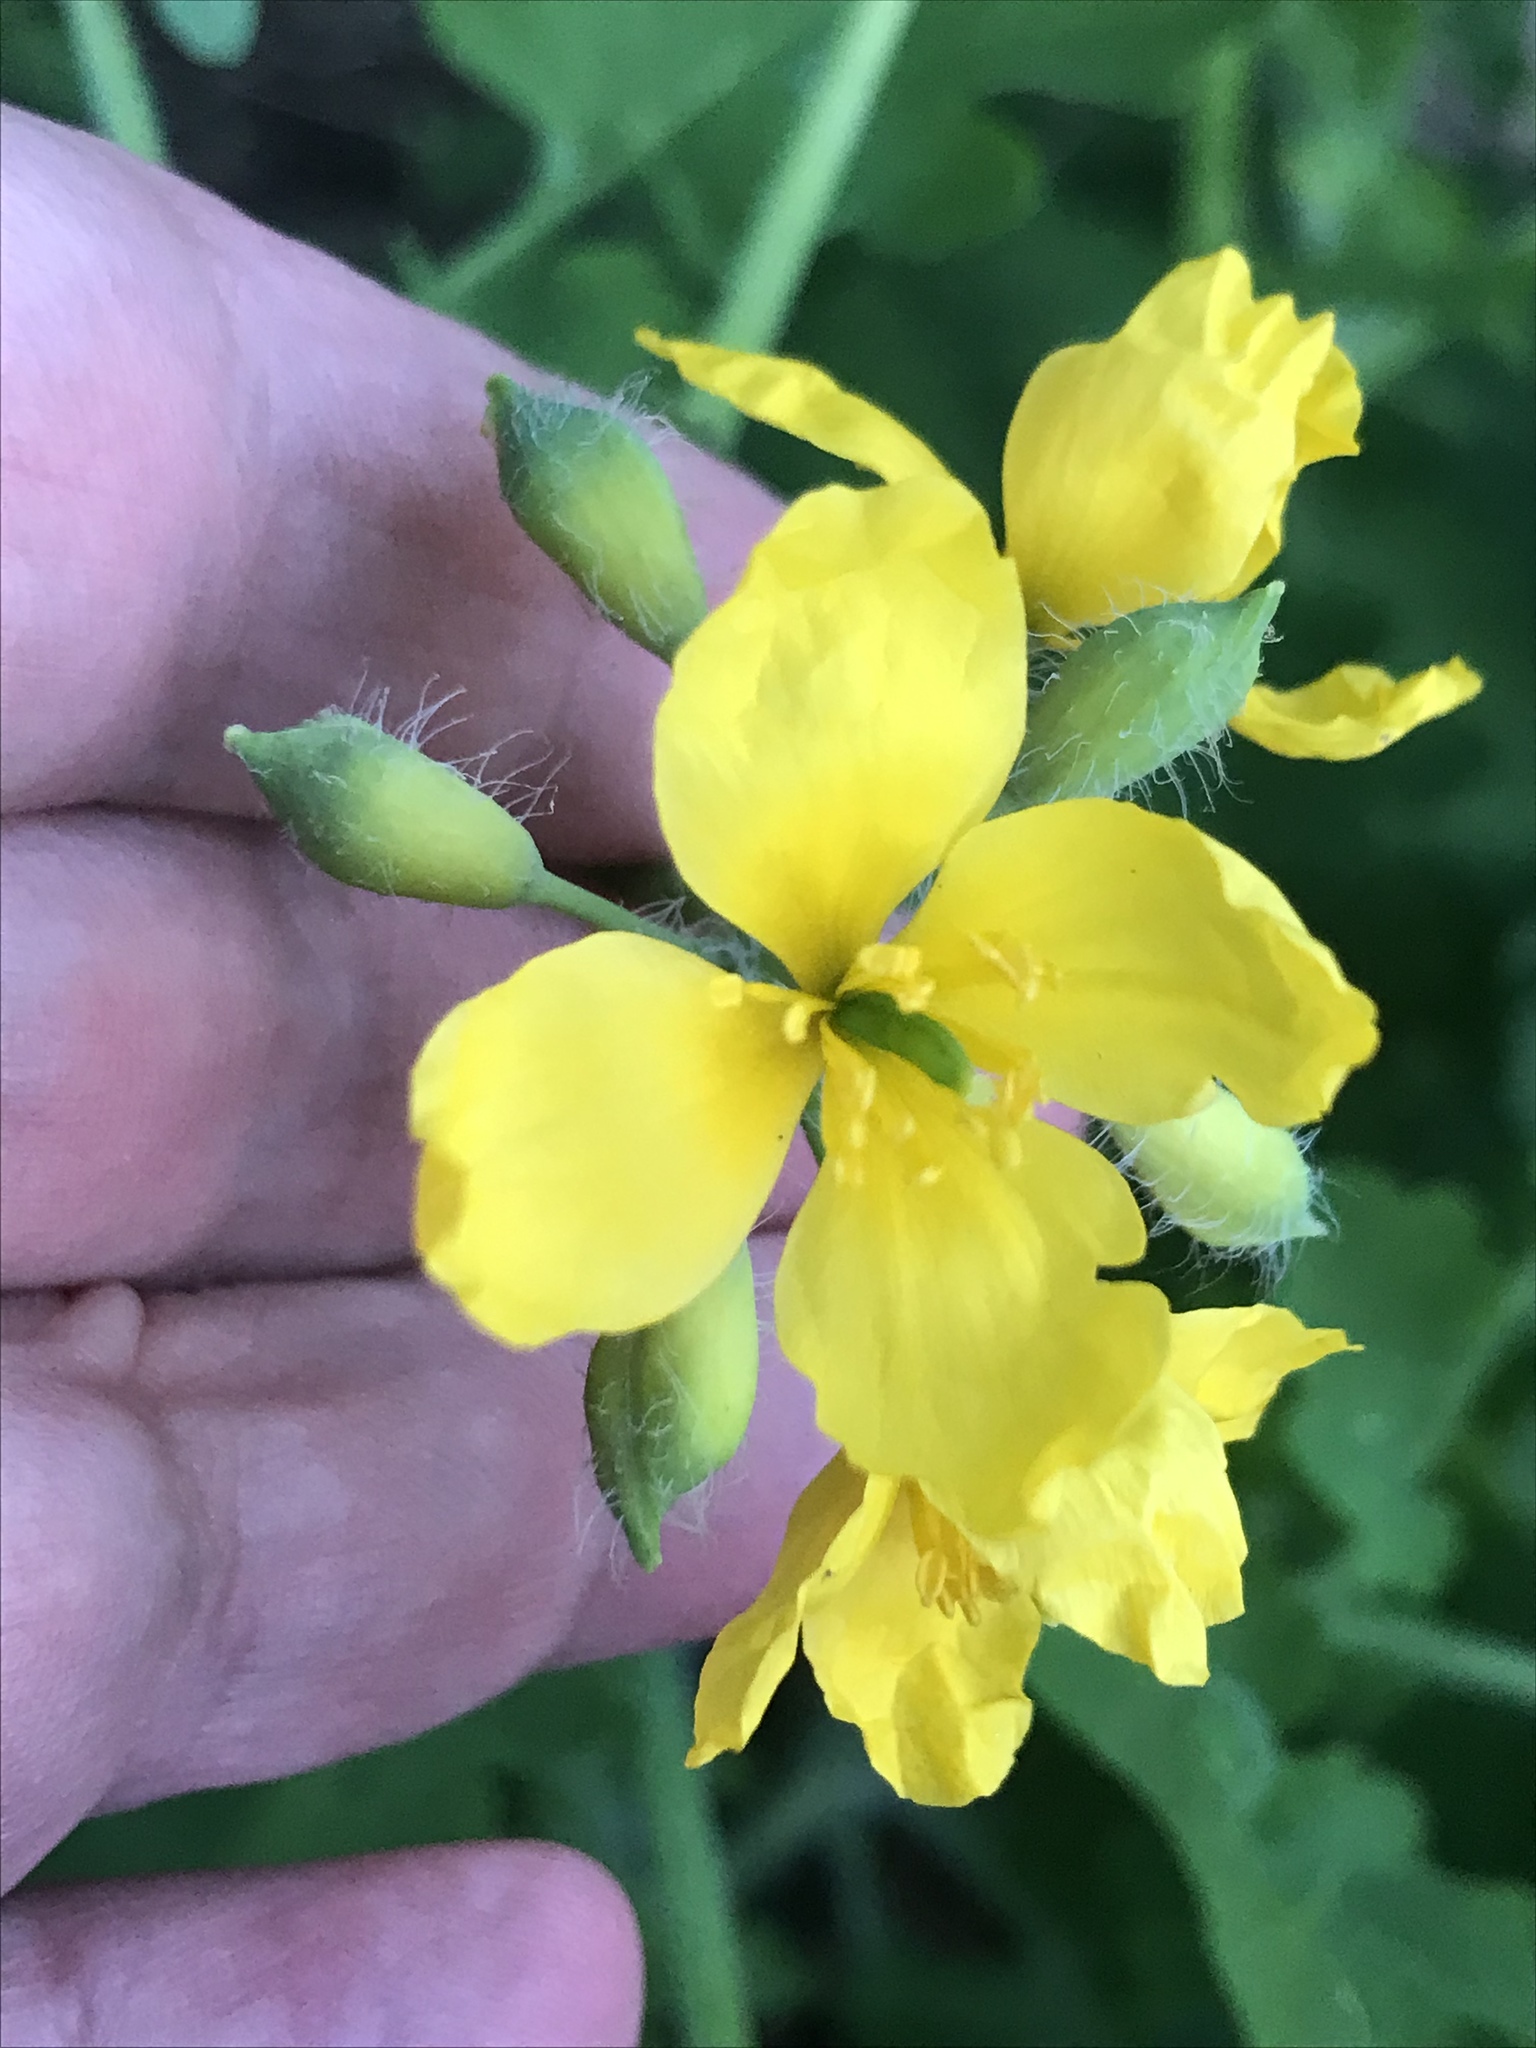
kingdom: Plantae
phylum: Tracheophyta
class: Magnoliopsida
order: Ranunculales
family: Papaveraceae
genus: Chelidonium
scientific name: Chelidonium majus
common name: Greater celandine
